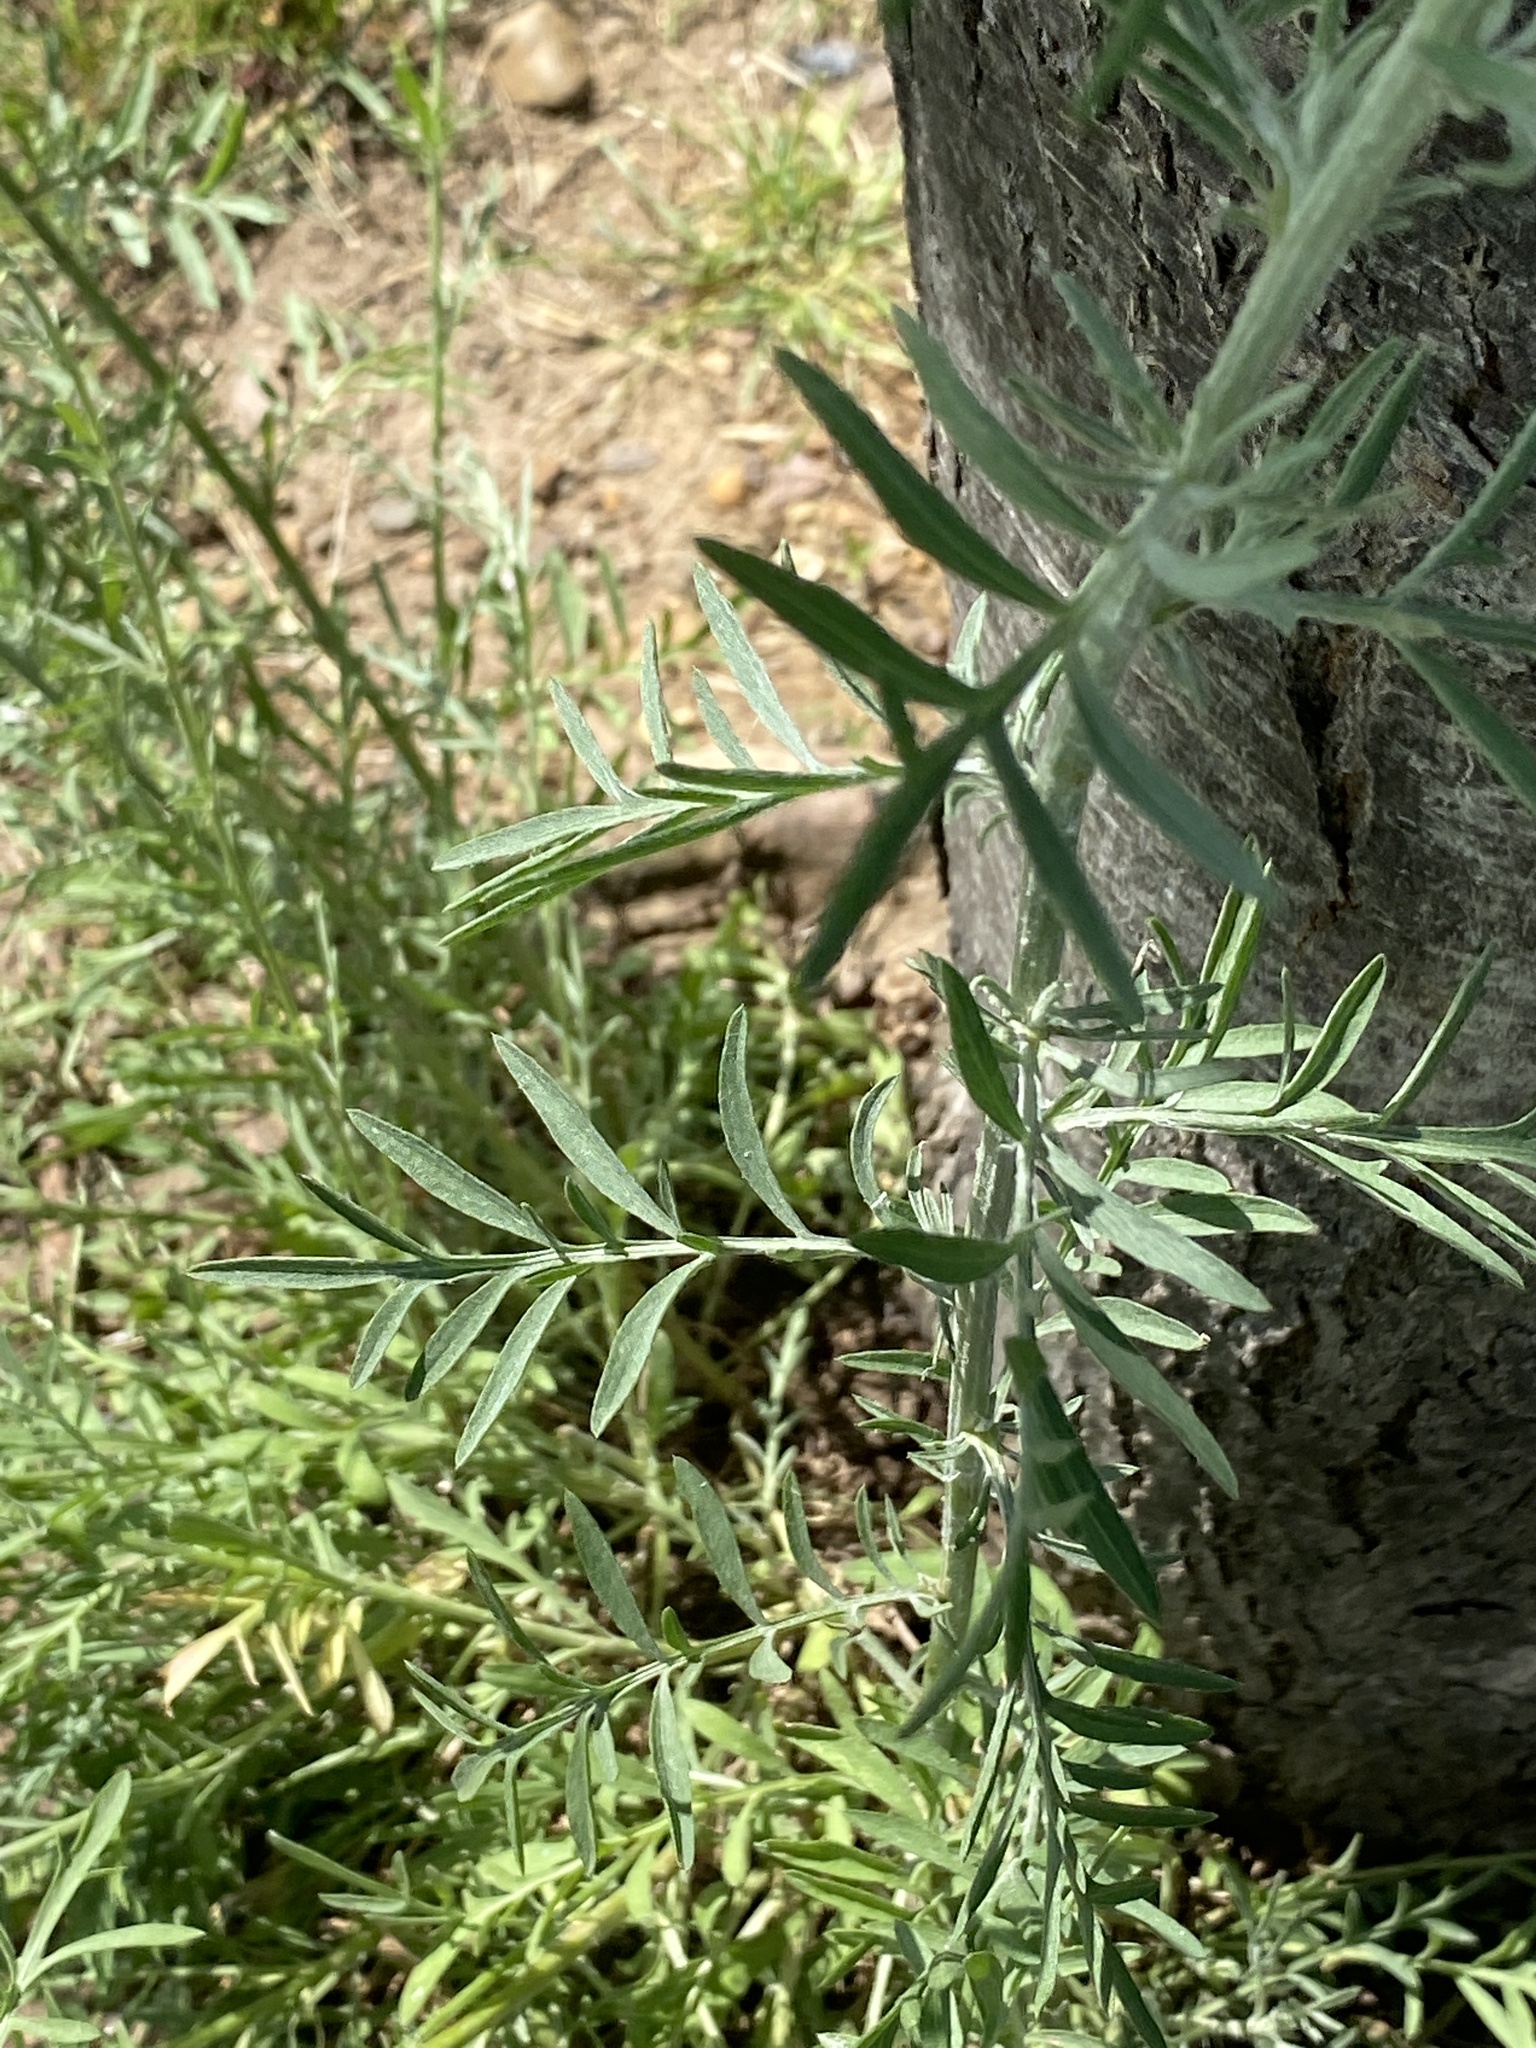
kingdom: Plantae
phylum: Tracheophyta
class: Magnoliopsida
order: Asterales
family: Asteraceae
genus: Centaurea
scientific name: Centaurea stoebe
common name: Spotted knapweed
